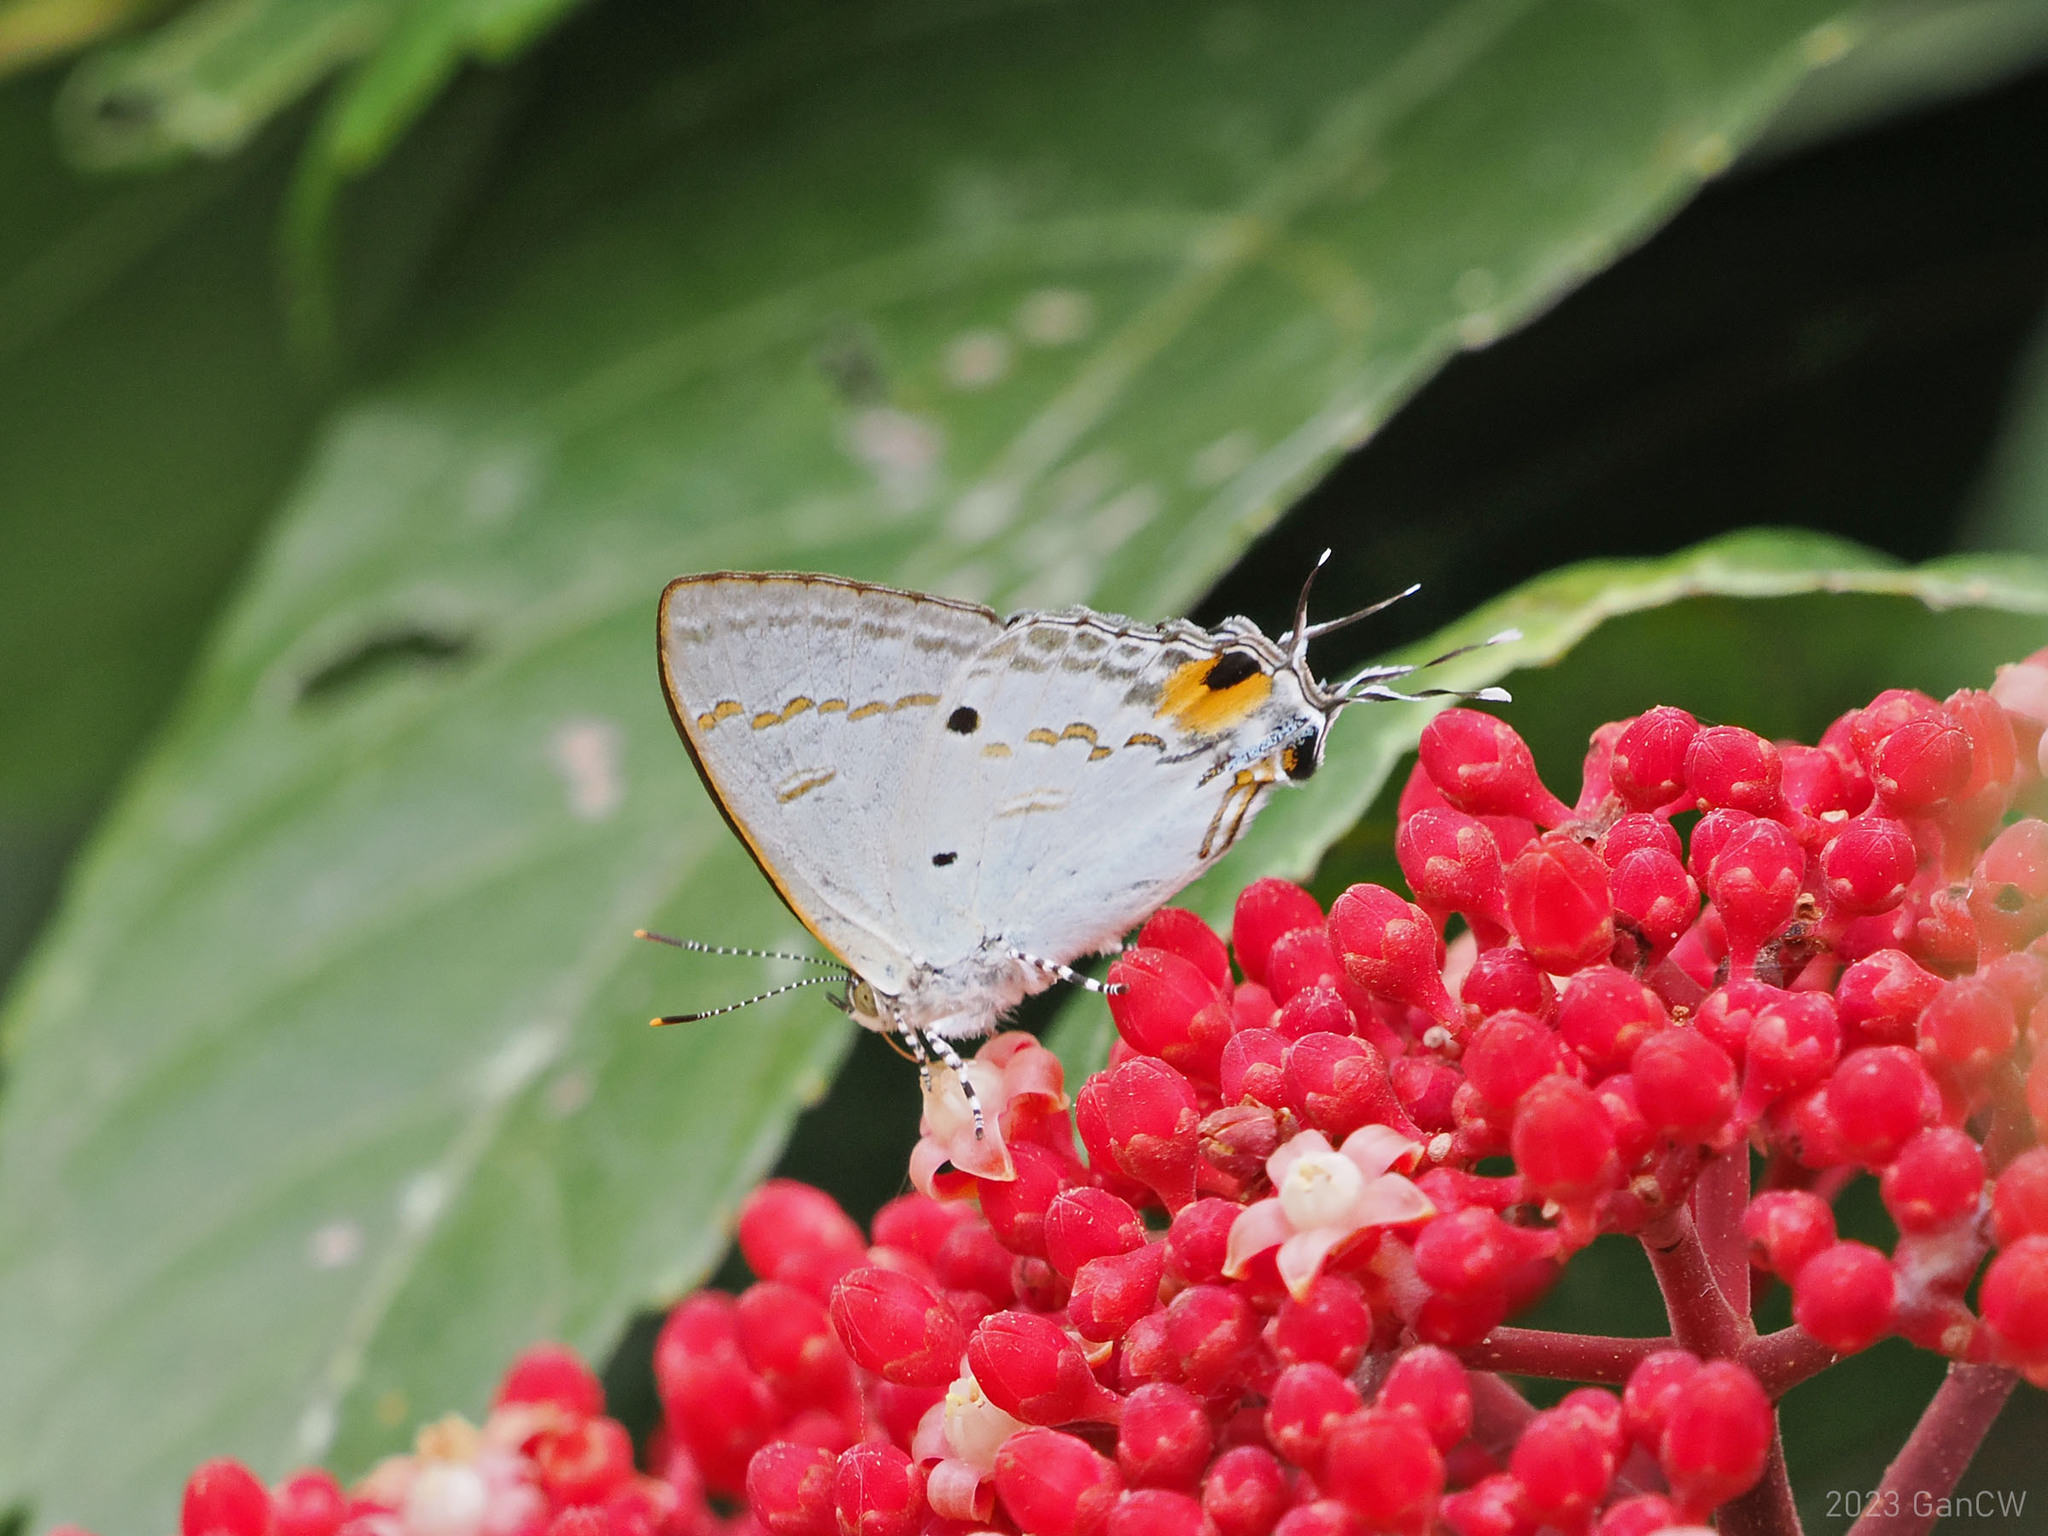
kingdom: Animalia
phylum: Arthropoda
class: Insecta
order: Lepidoptera
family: Lycaenidae
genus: Hypolycaena
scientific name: Hypolycaena sipylus
